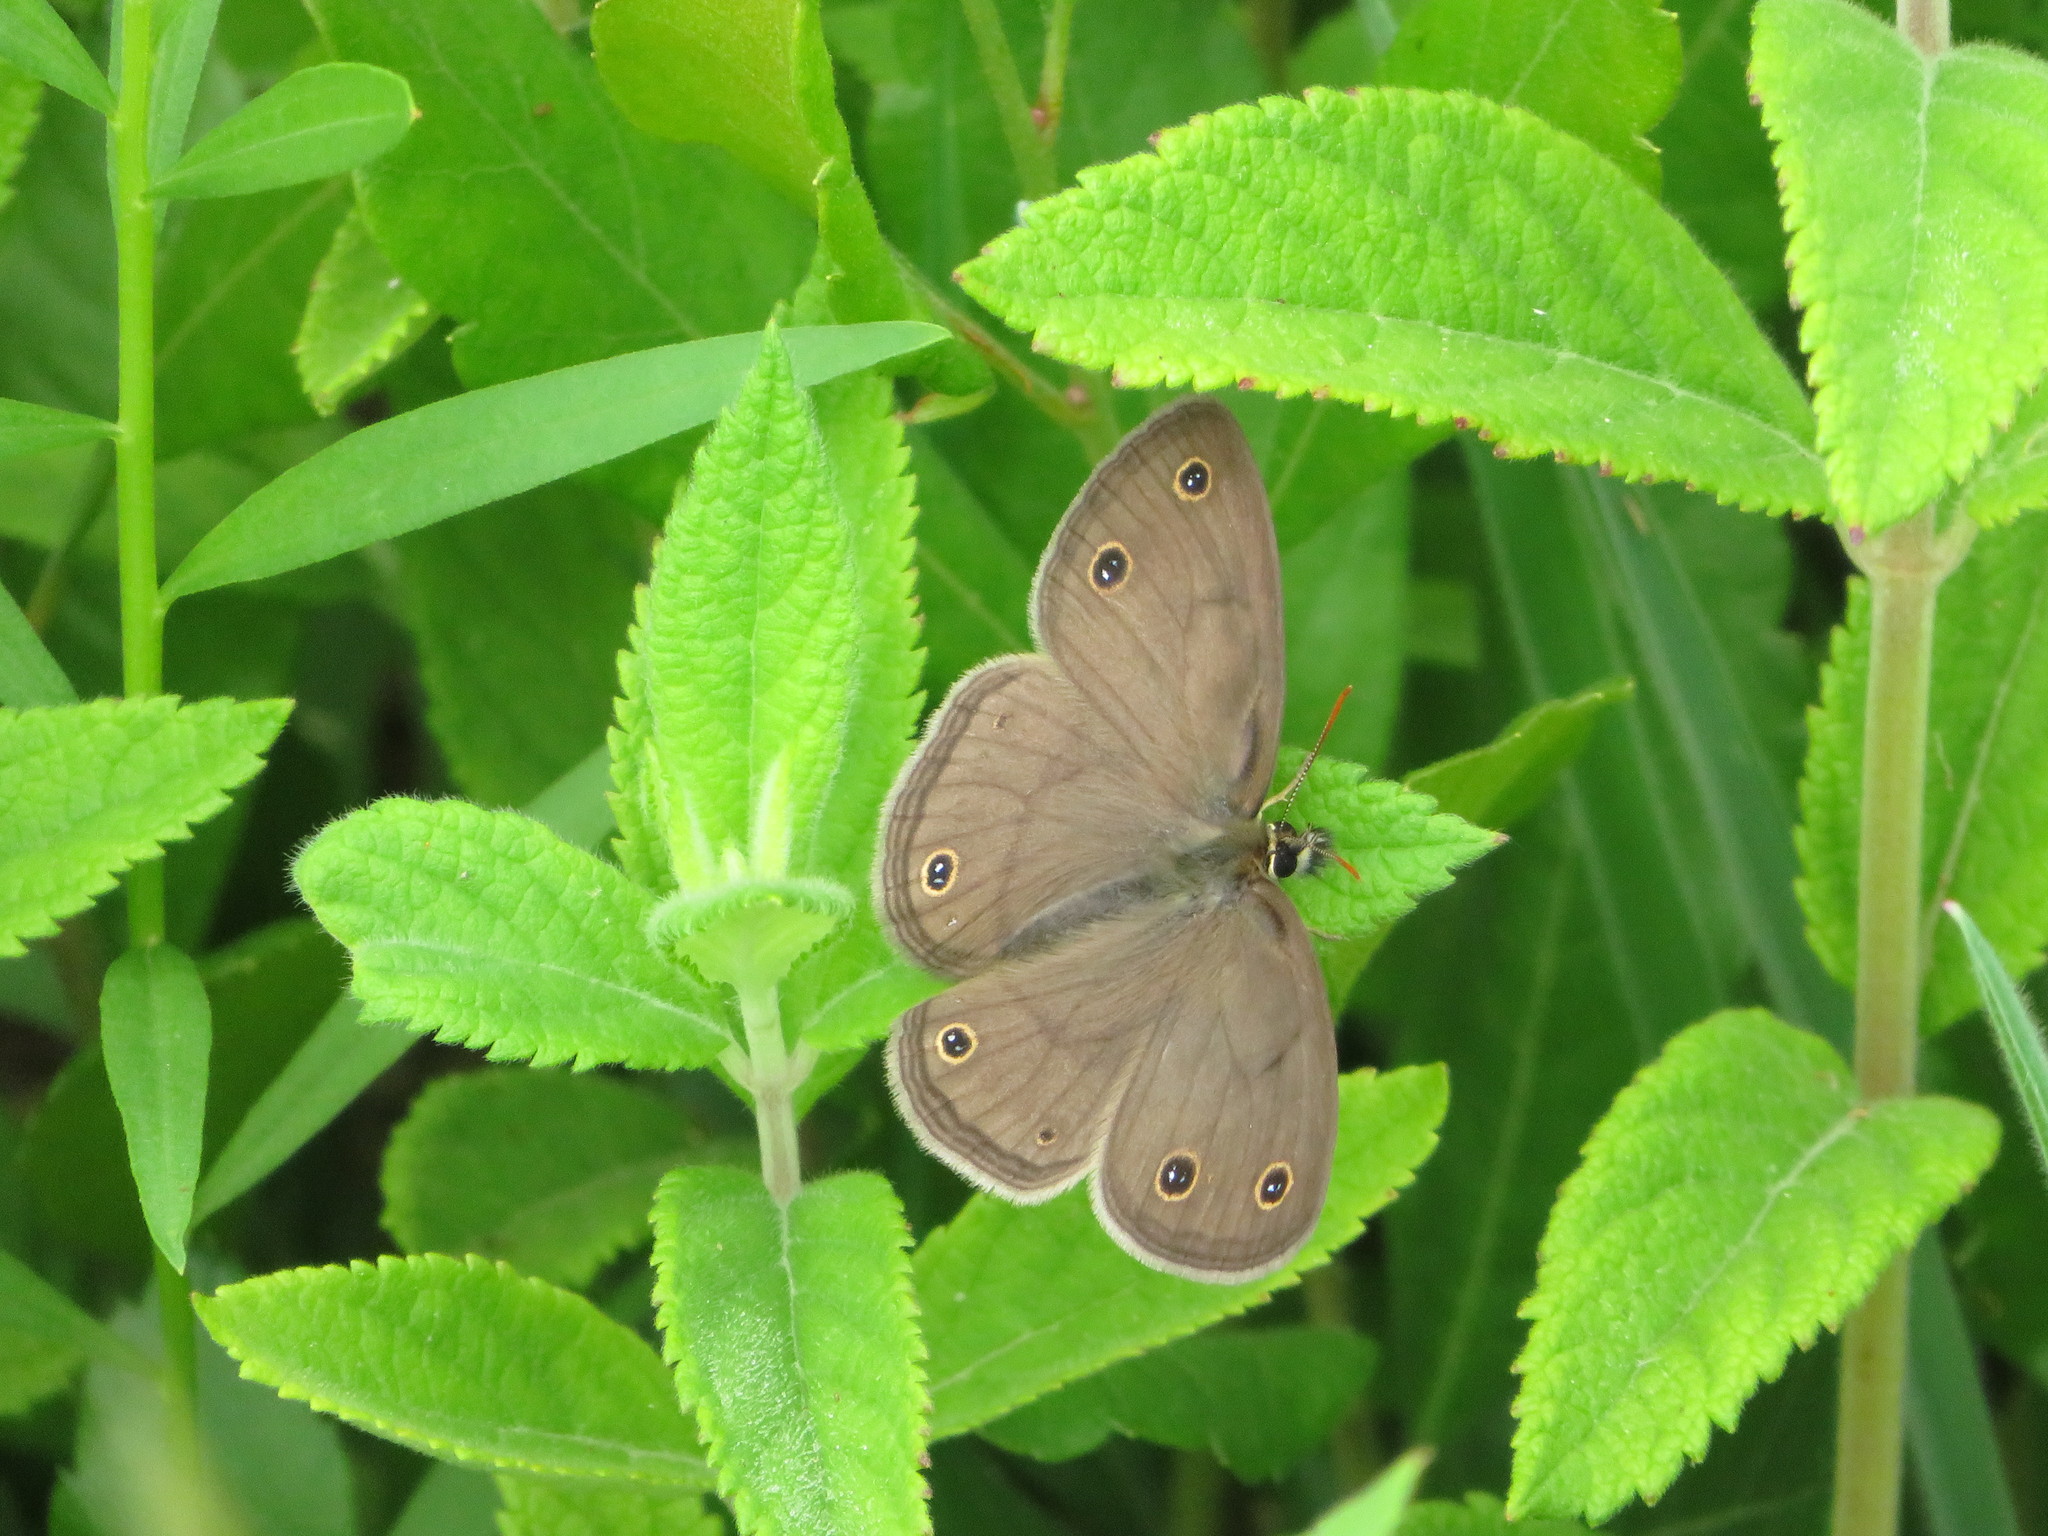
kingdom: Animalia
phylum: Arthropoda
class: Insecta
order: Lepidoptera
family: Nymphalidae
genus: Euptychia
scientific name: Euptychia cymela
